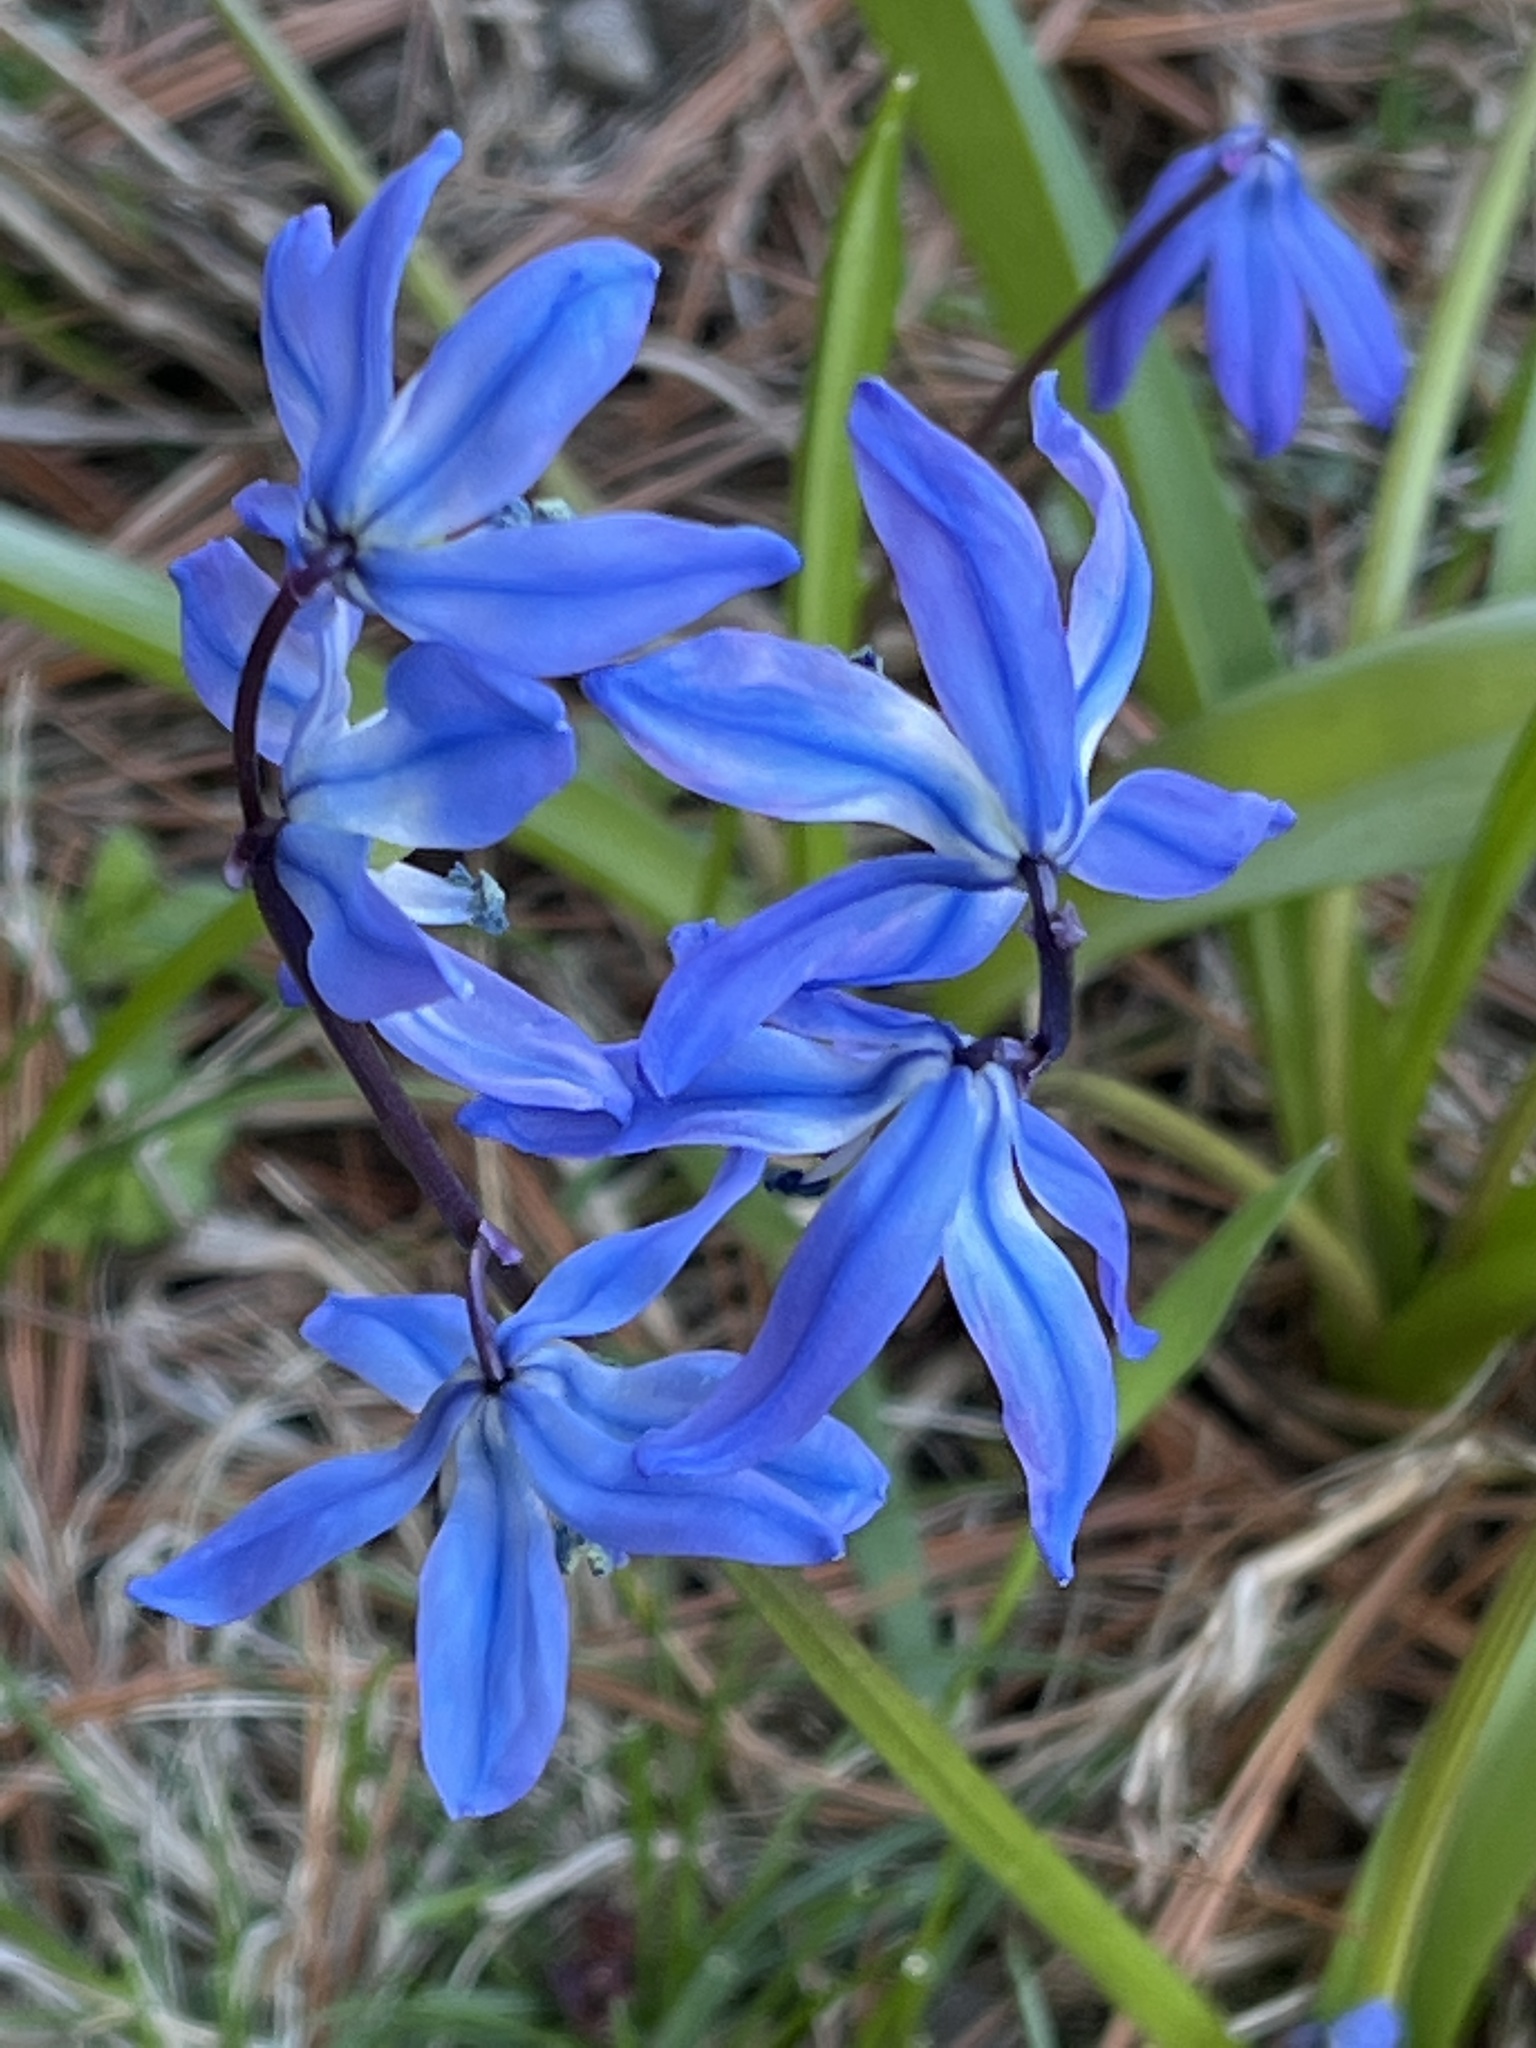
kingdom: Plantae
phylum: Tracheophyta
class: Liliopsida
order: Asparagales
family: Asparagaceae
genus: Scilla
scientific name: Scilla siberica
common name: Siberian squill
